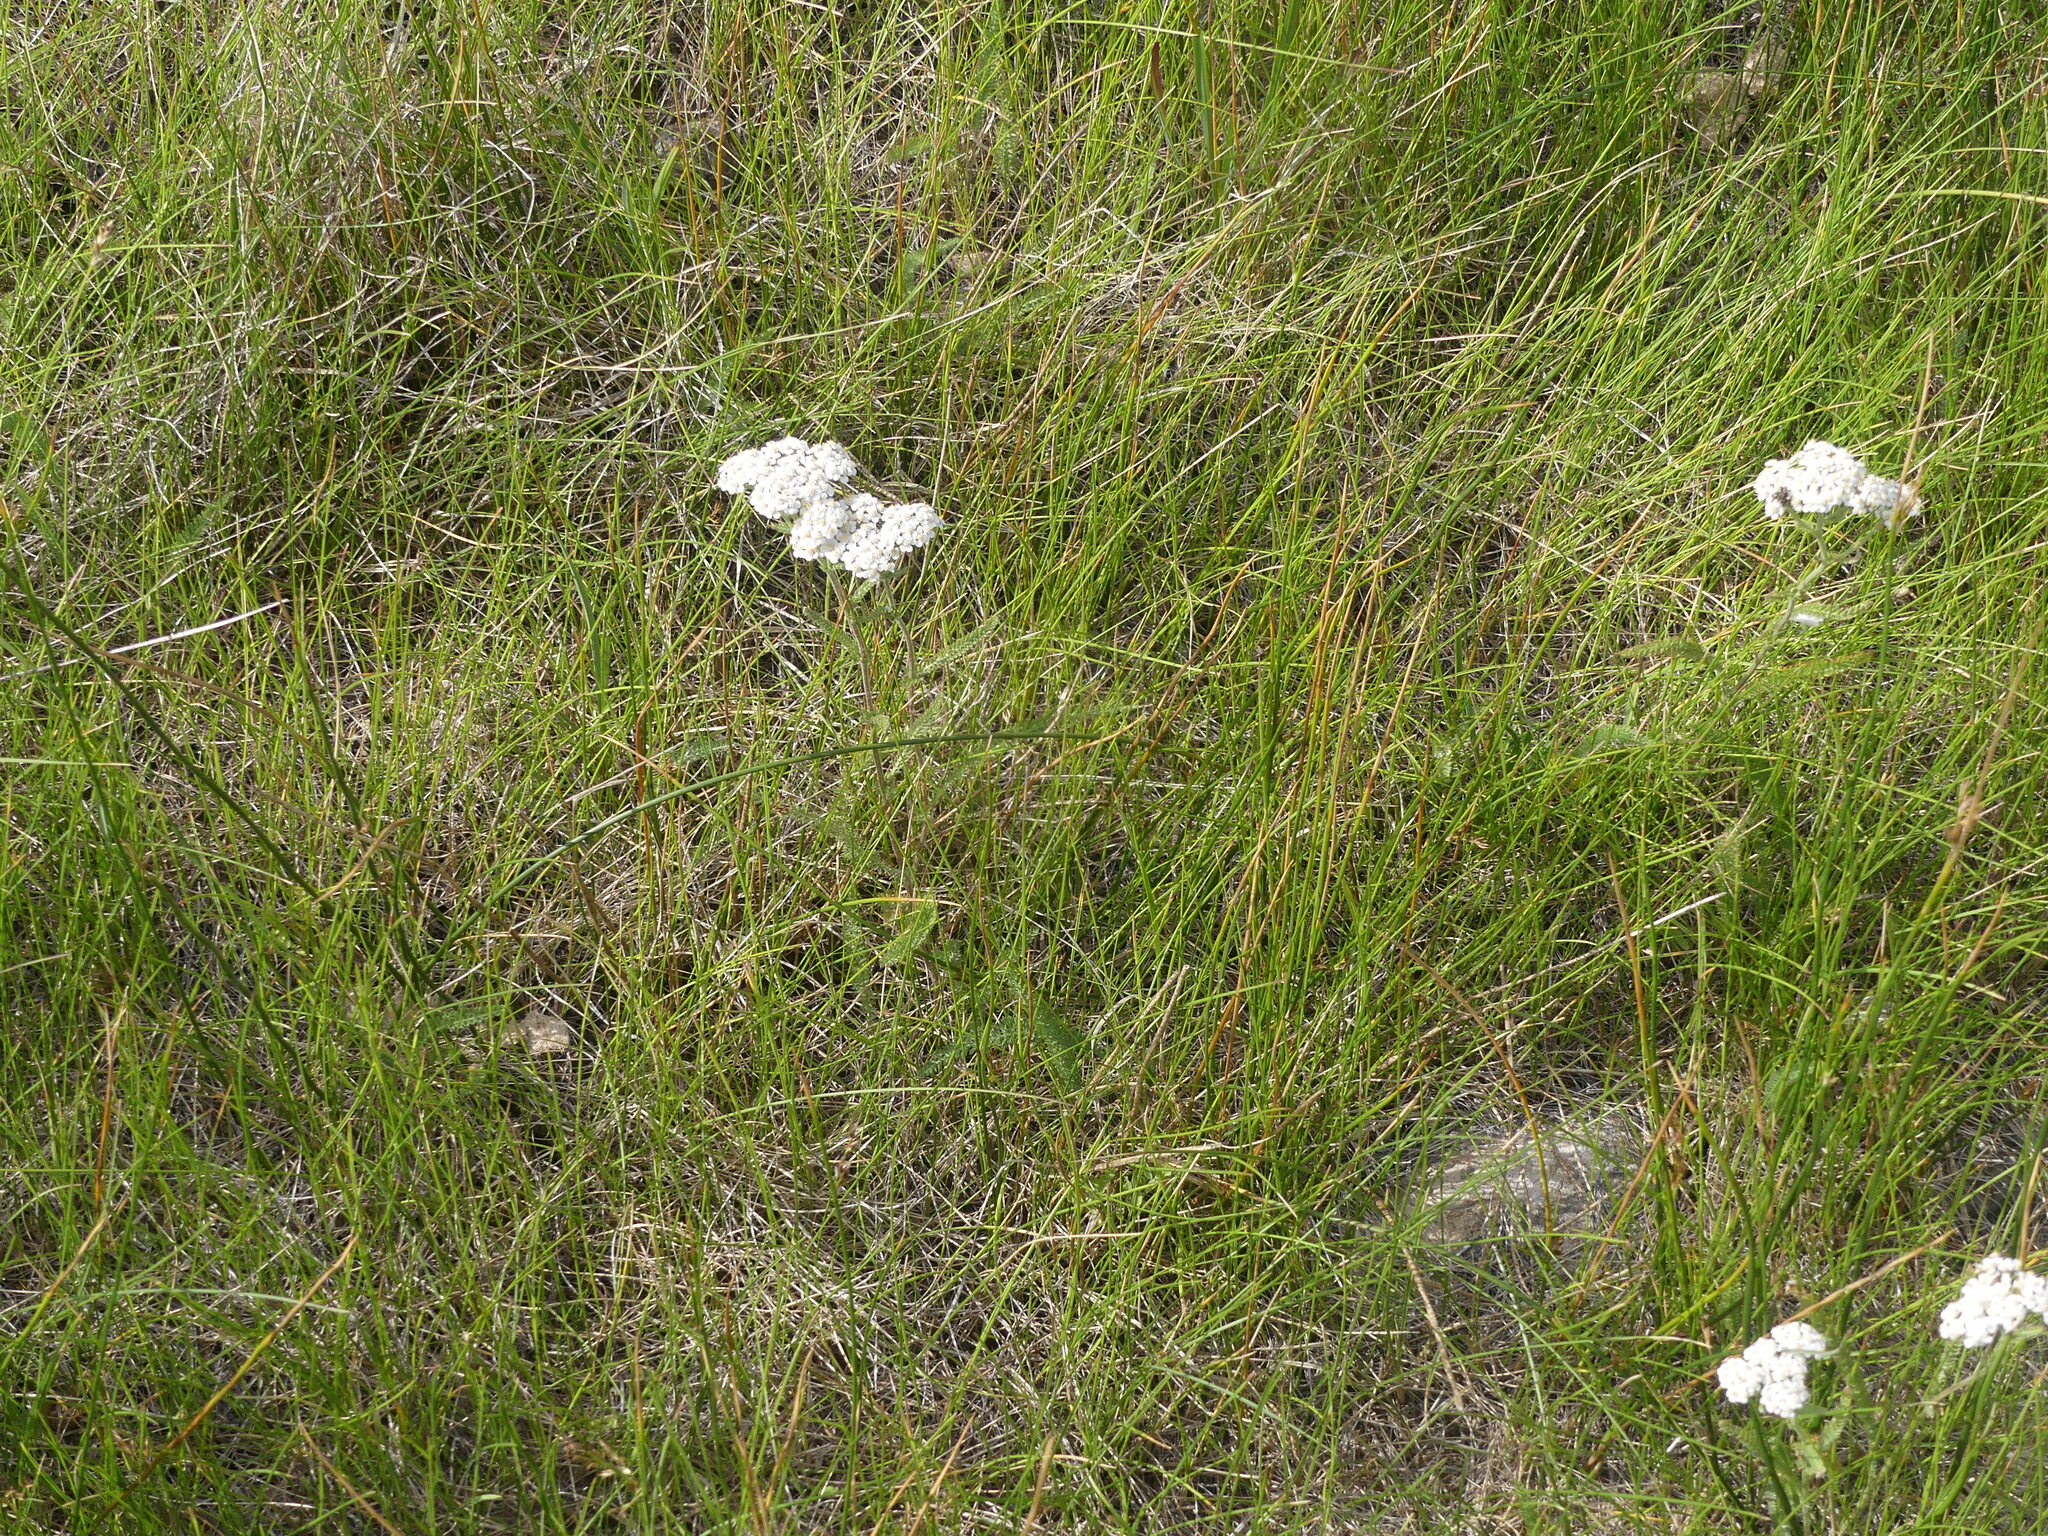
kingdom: Plantae
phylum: Tracheophyta
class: Magnoliopsida
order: Asterales
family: Asteraceae
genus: Achillea
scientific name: Achillea millefolium
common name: Yarrow
